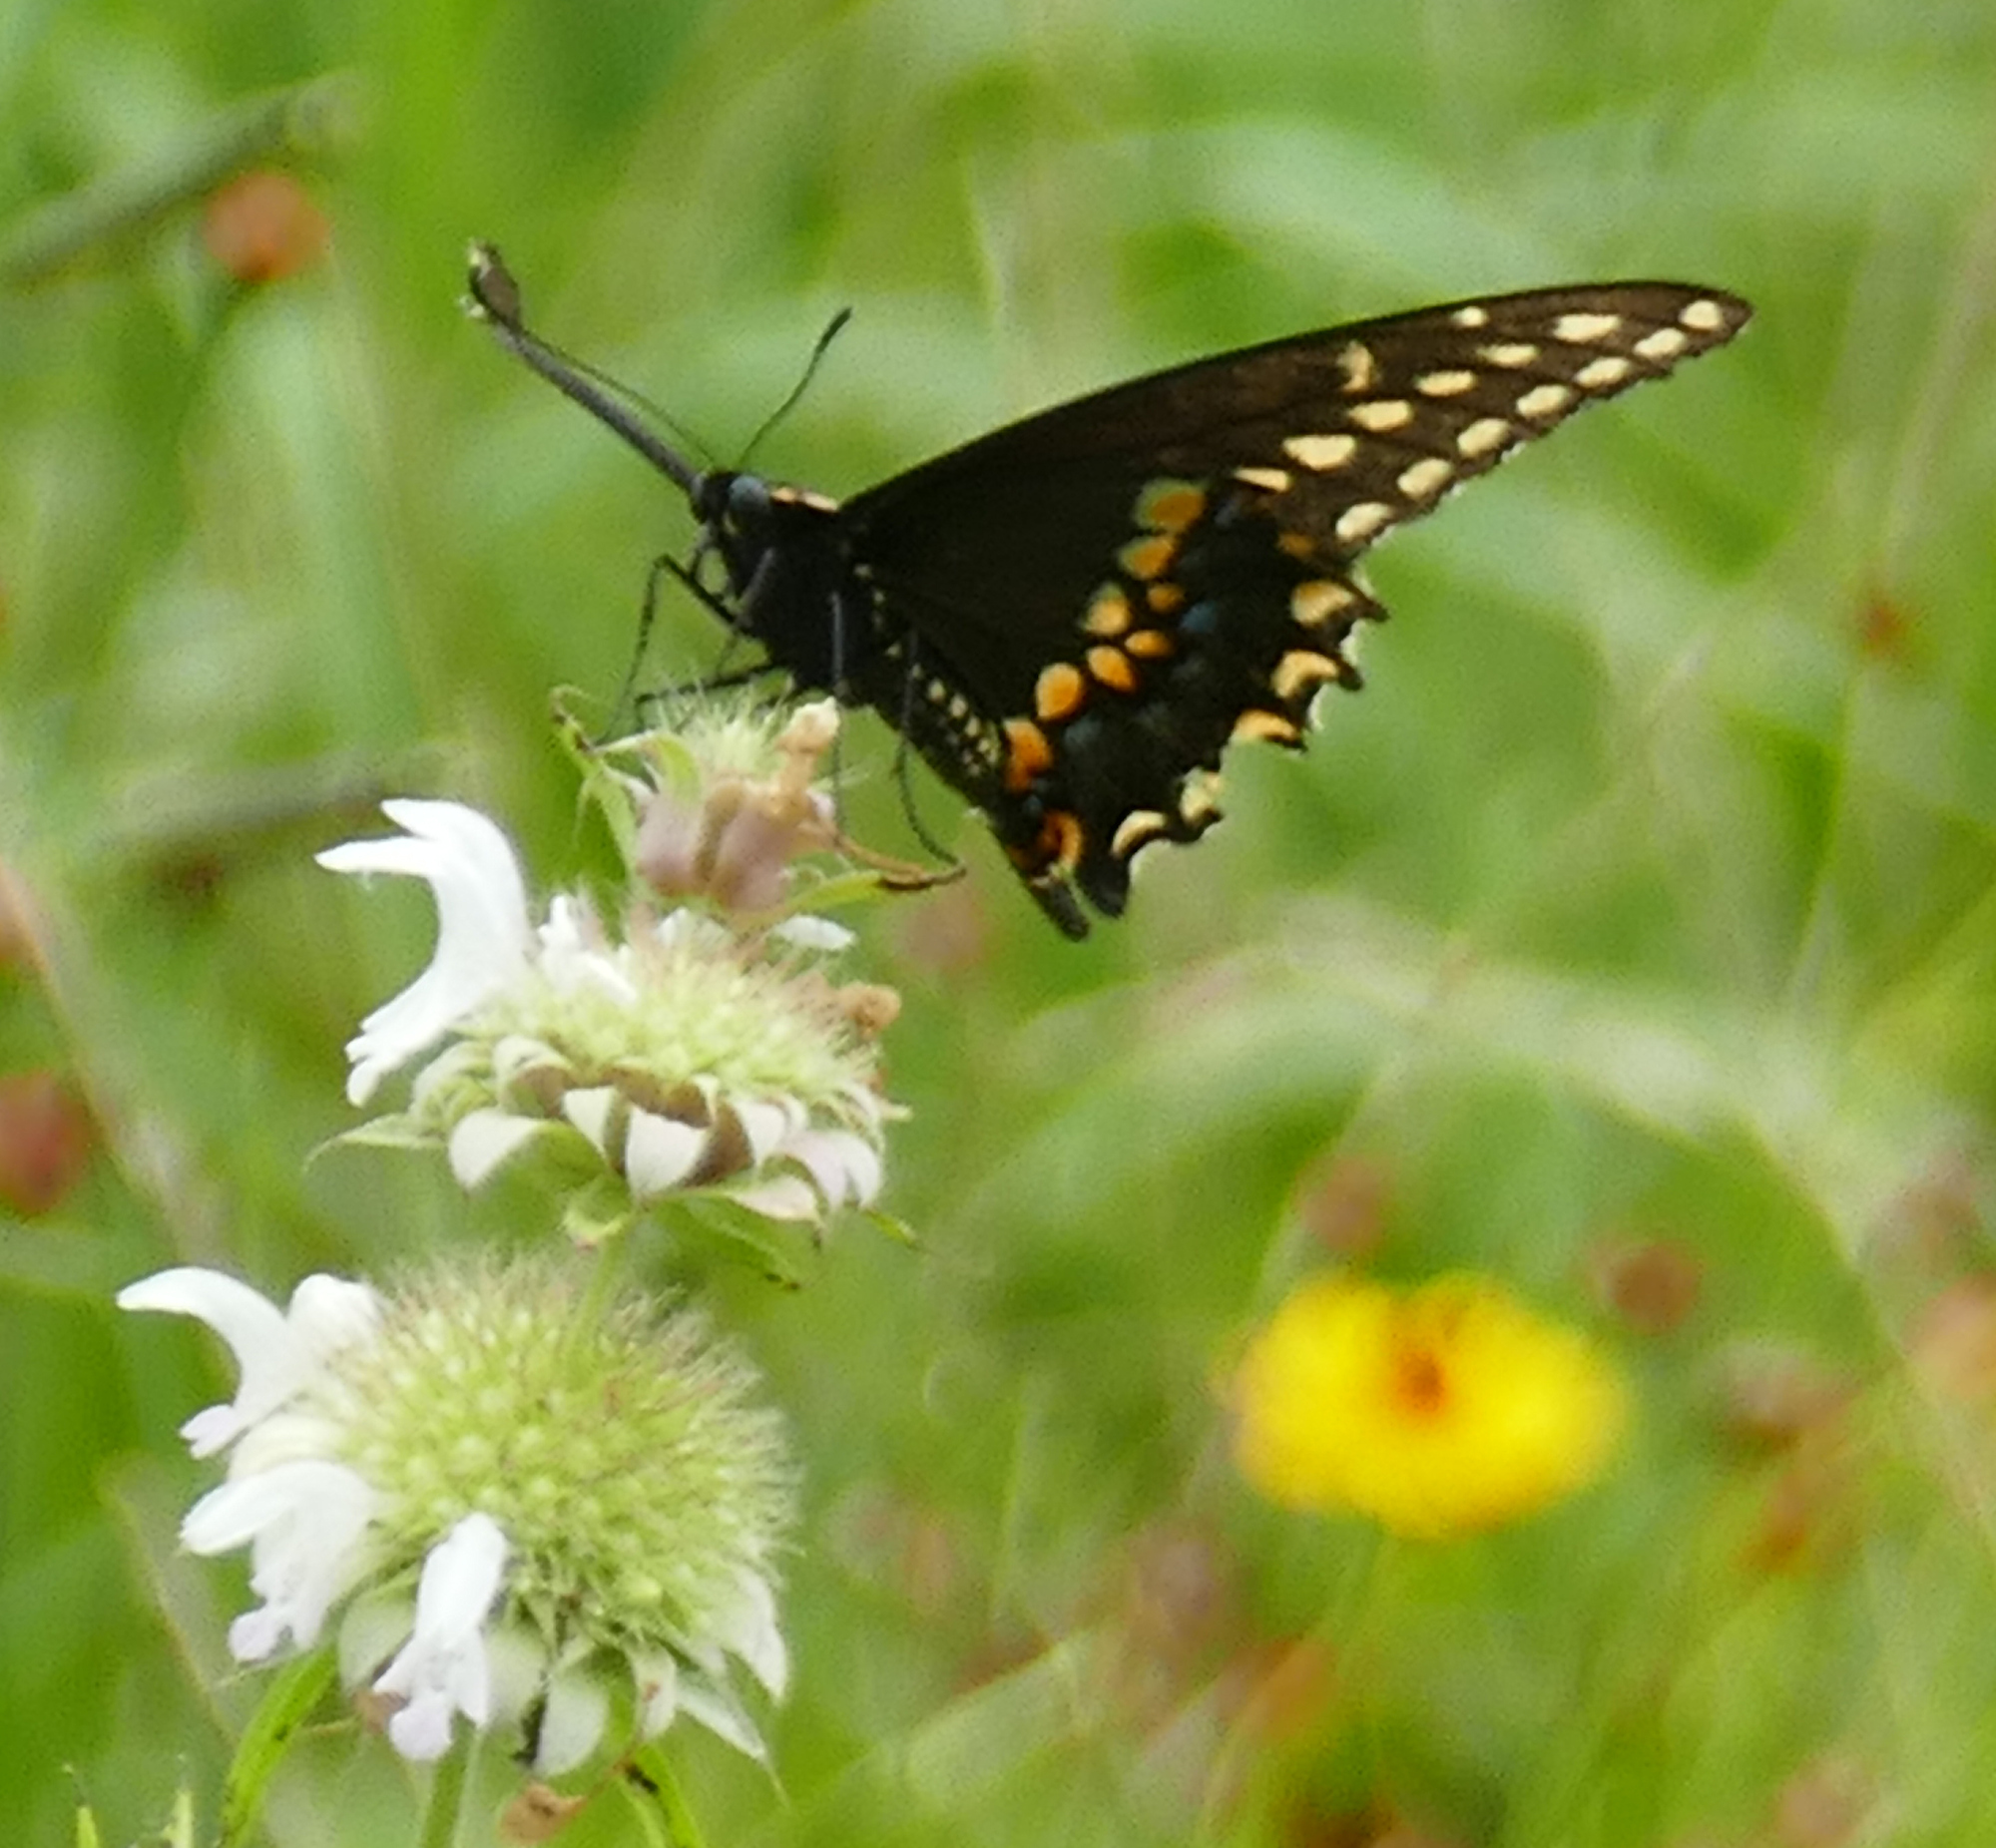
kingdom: Animalia
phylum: Arthropoda
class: Insecta
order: Lepidoptera
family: Papilionidae
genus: Papilio
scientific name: Papilio polyxenes
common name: Black swallowtail
